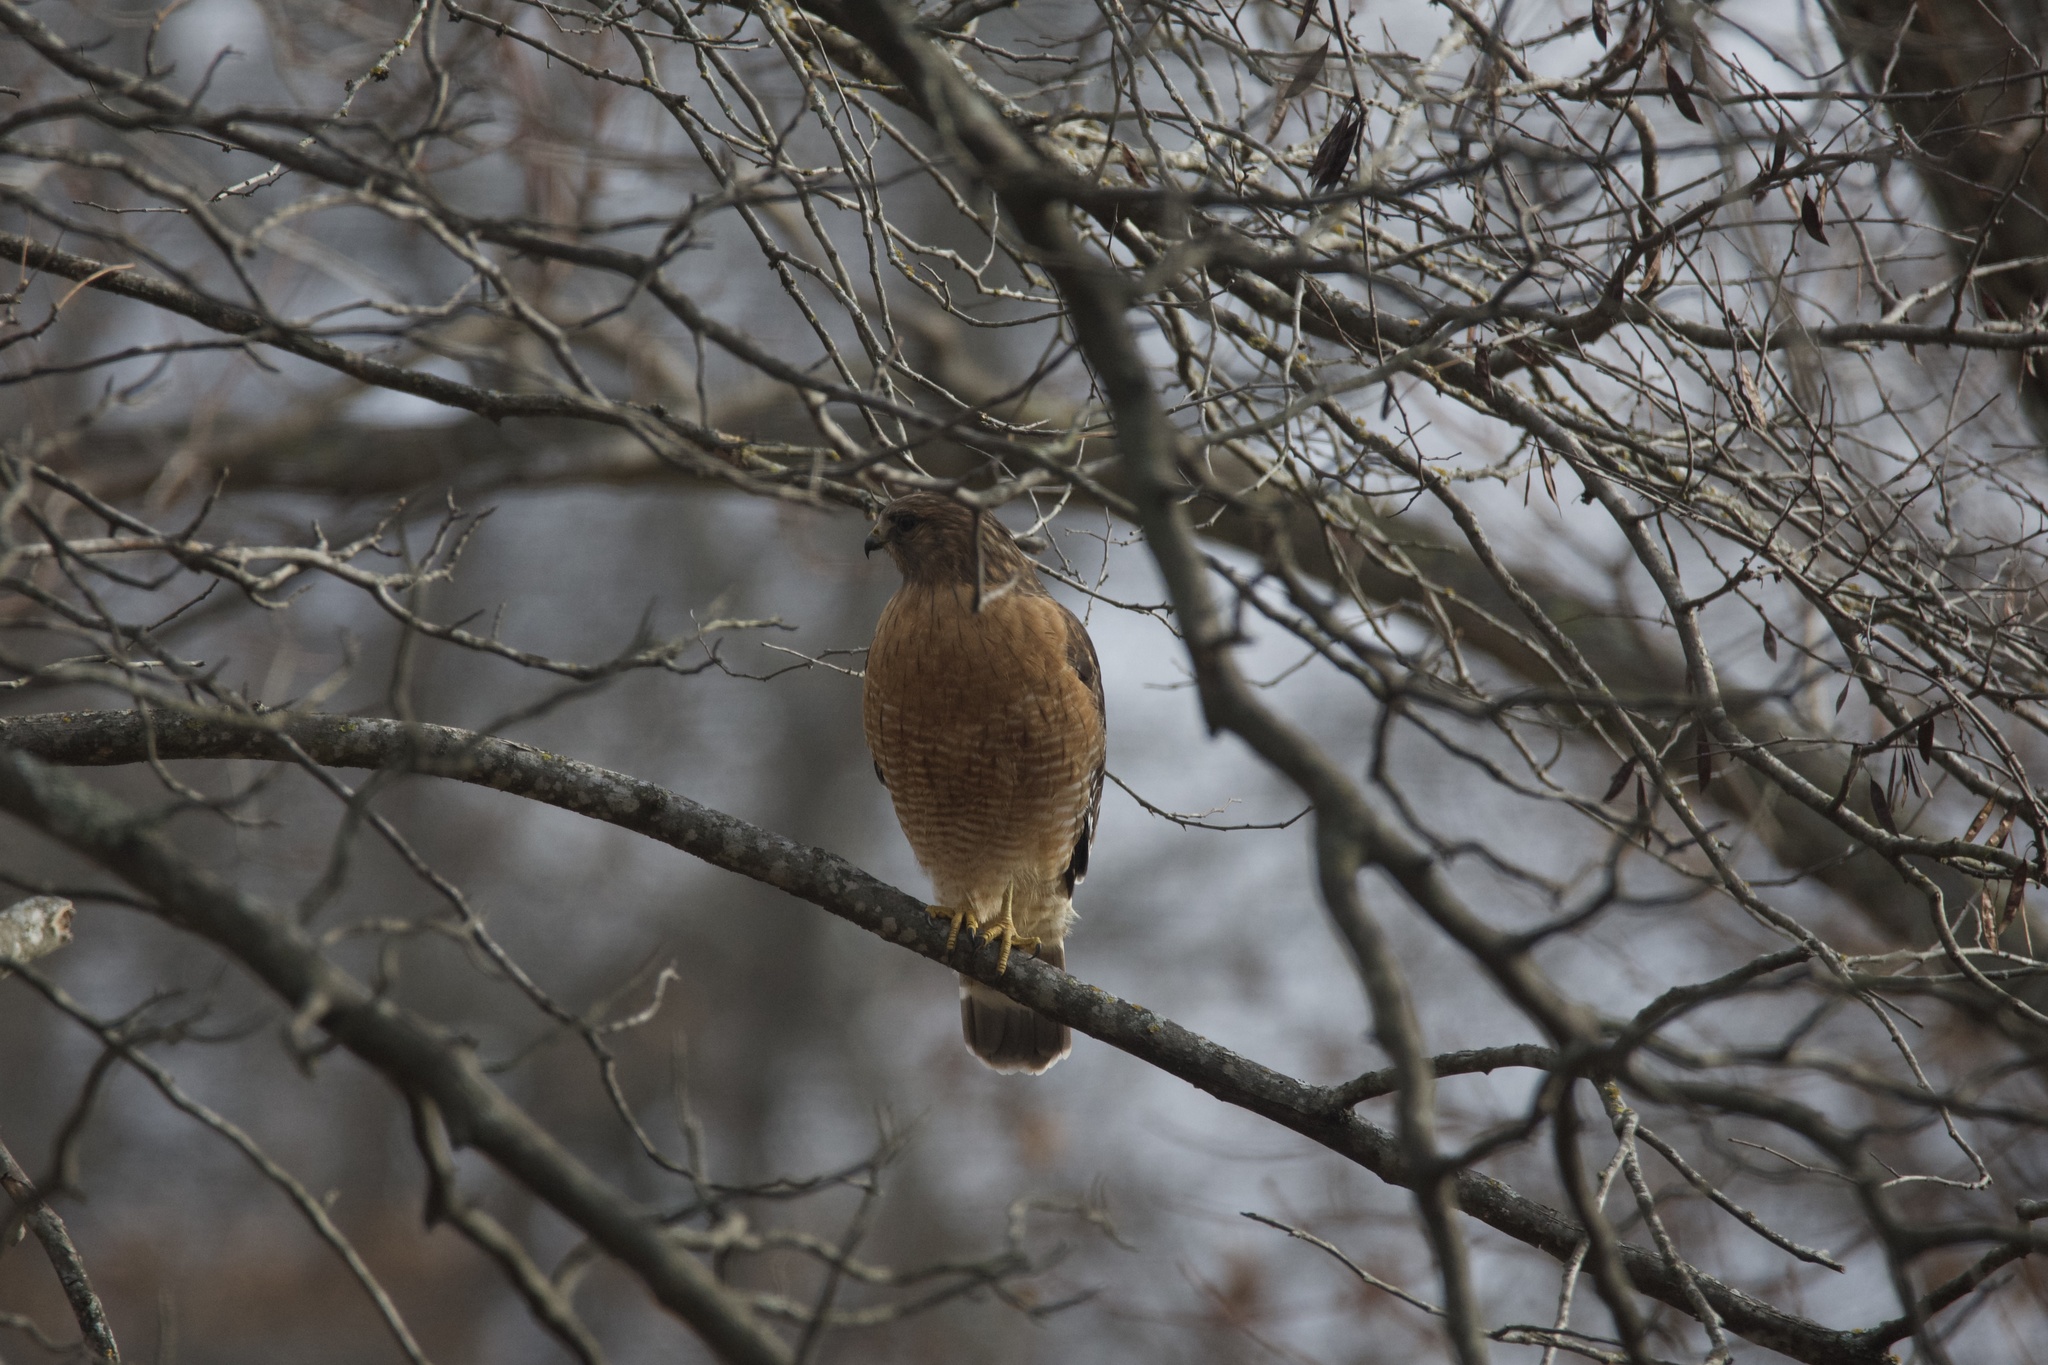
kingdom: Animalia
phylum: Chordata
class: Aves
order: Accipitriformes
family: Accipitridae
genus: Buteo
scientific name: Buteo lineatus
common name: Red-shouldered hawk
